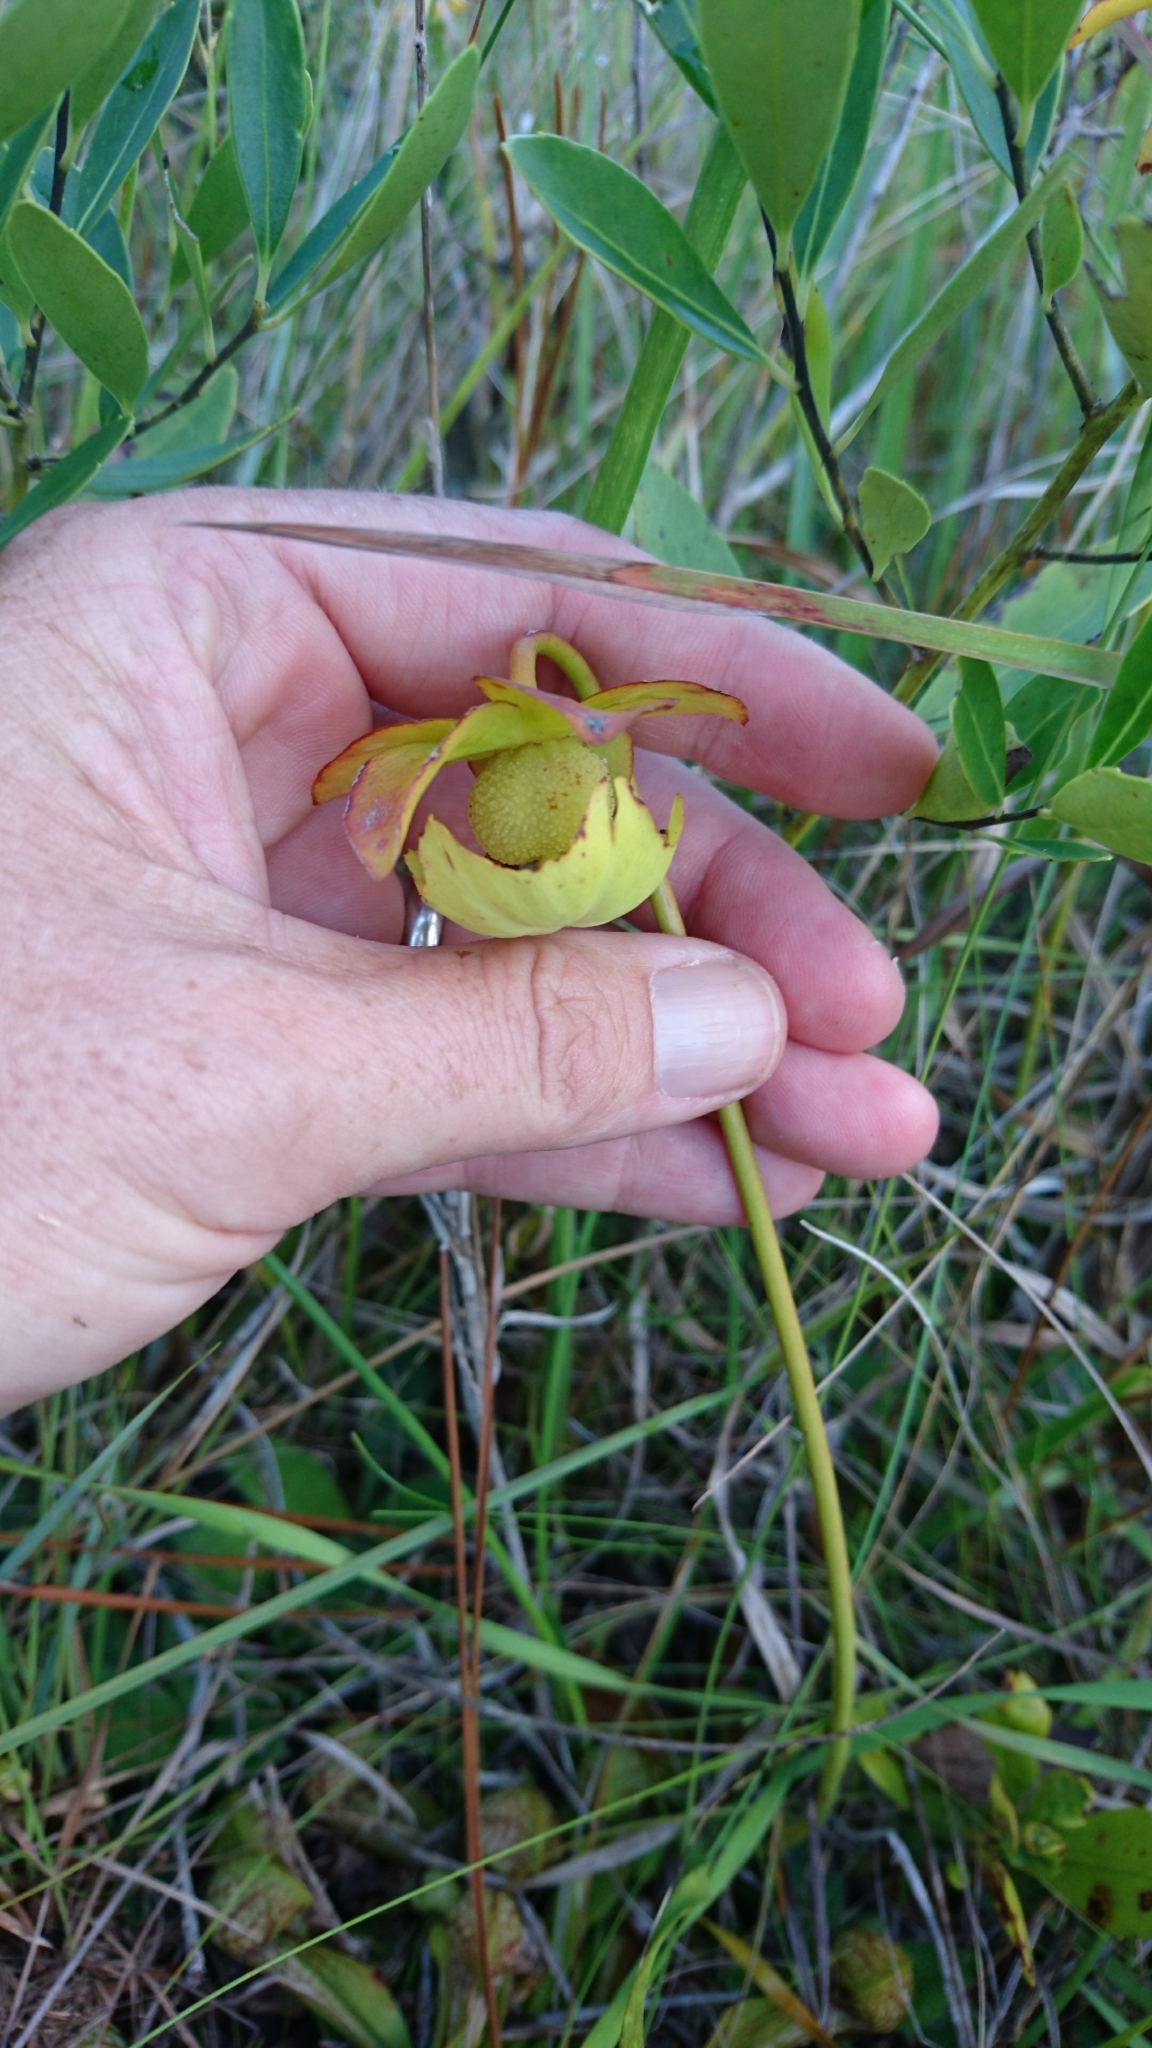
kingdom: Plantae
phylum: Tracheophyta
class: Magnoliopsida
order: Ericales
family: Sarraceniaceae
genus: Sarracenia
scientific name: Sarracenia psittacina
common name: Parrot pitcherplant
